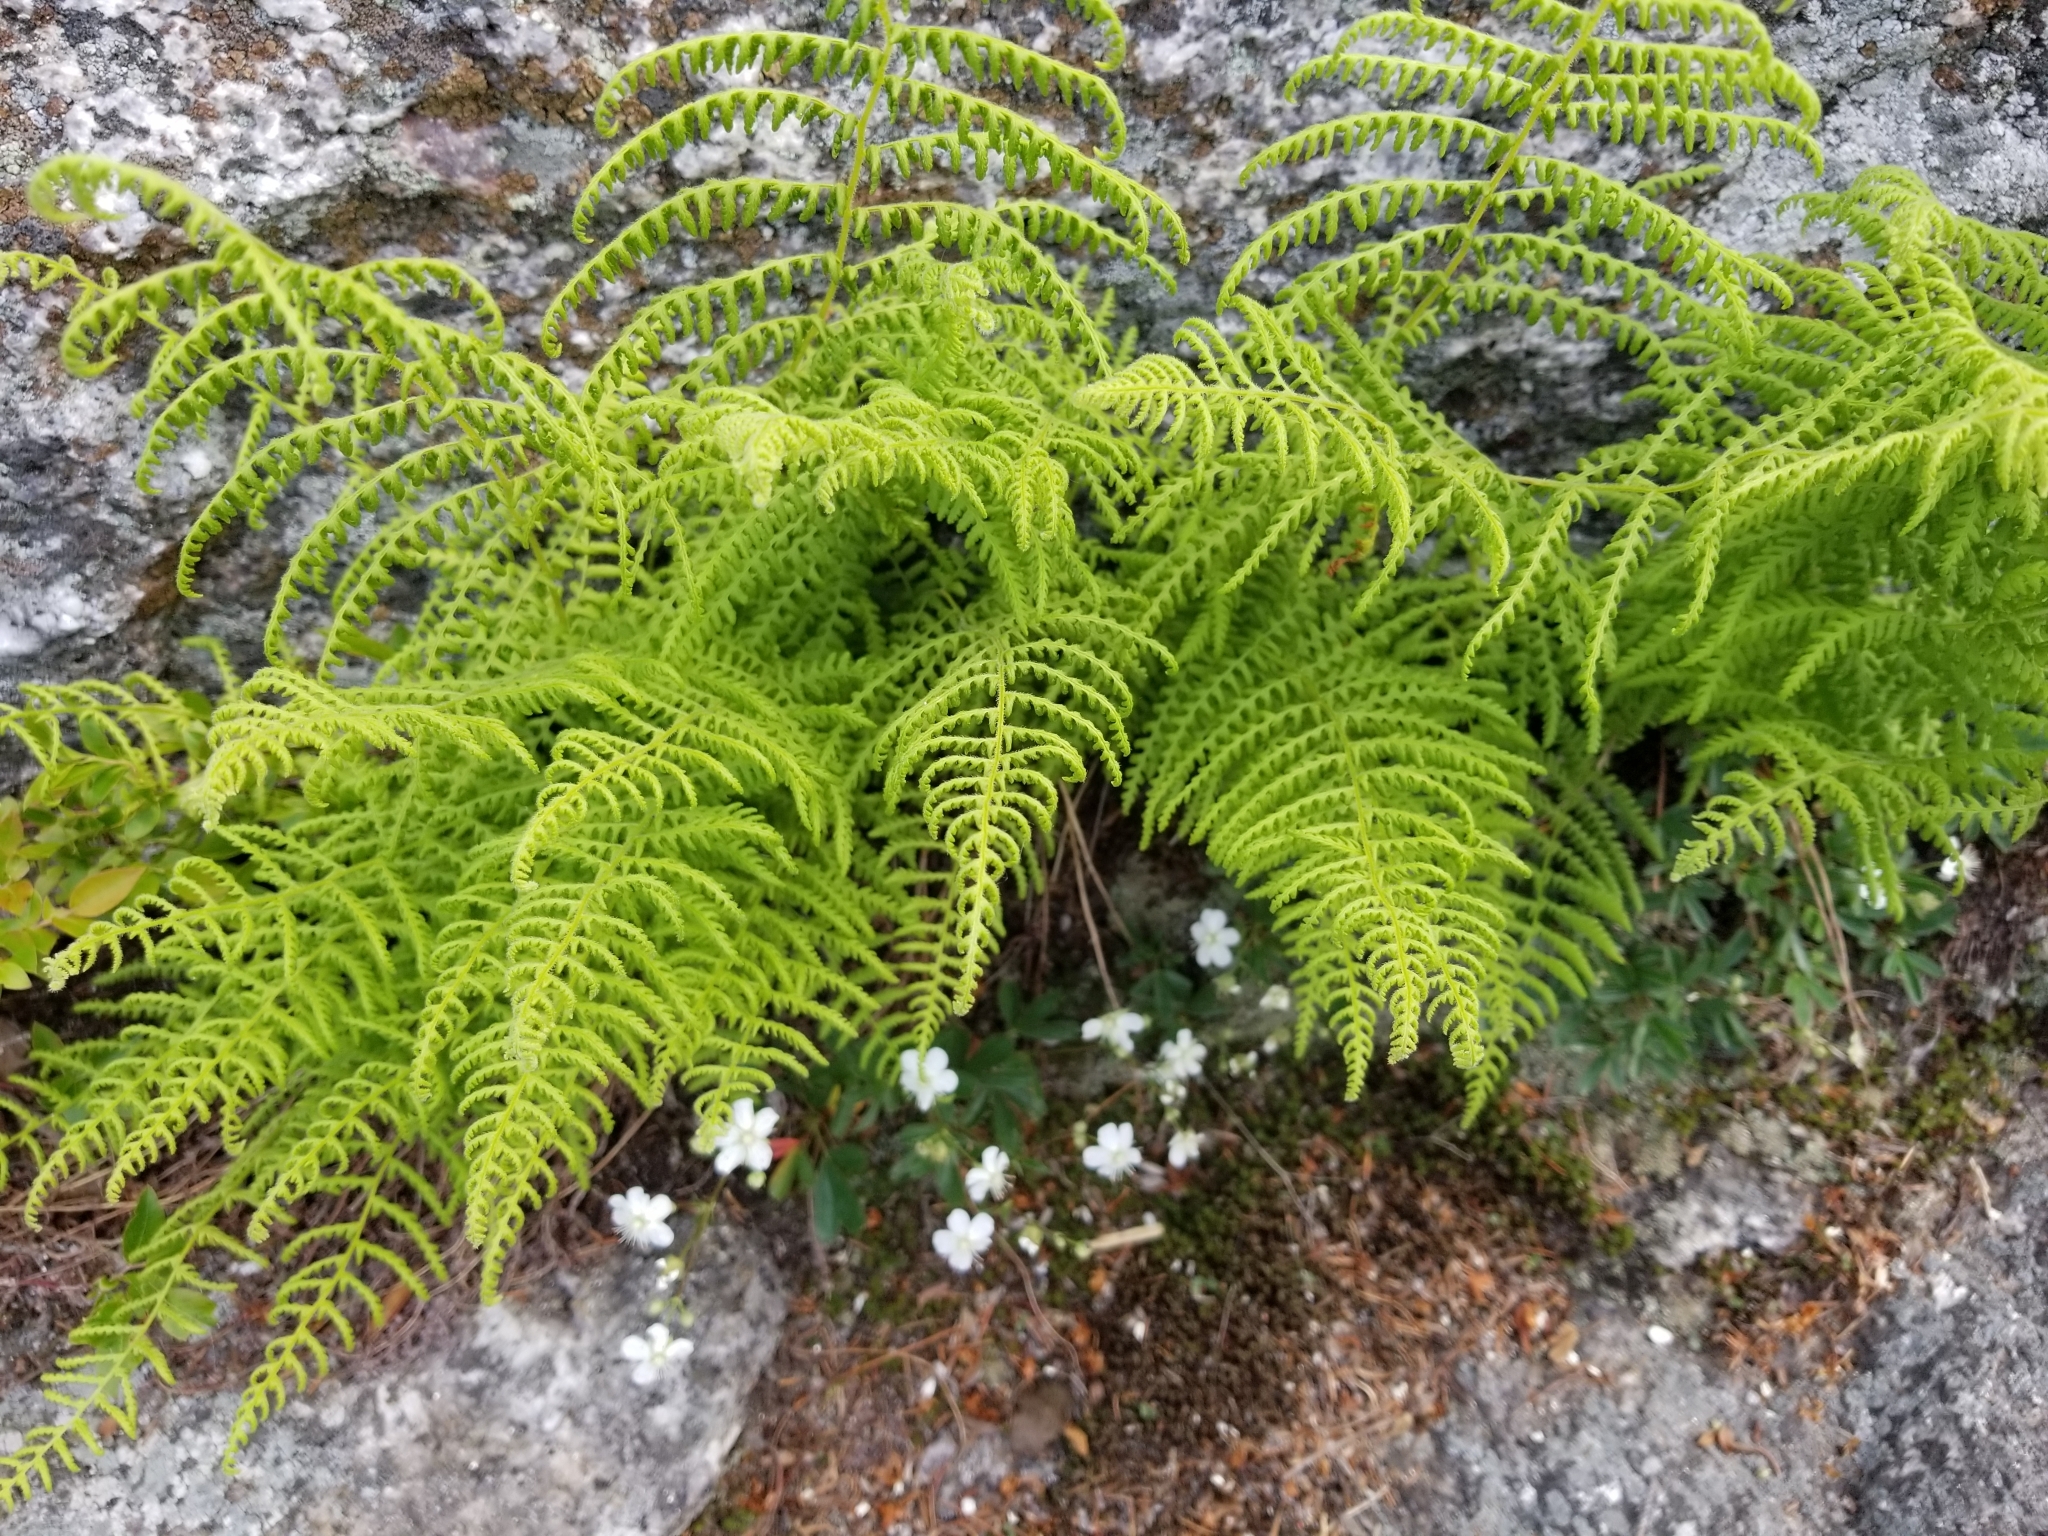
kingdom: Plantae
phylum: Tracheophyta
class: Polypodiopsida
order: Polypodiales
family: Dennstaedtiaceae
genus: Sitobolium
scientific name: Sitobolium punctilobum
